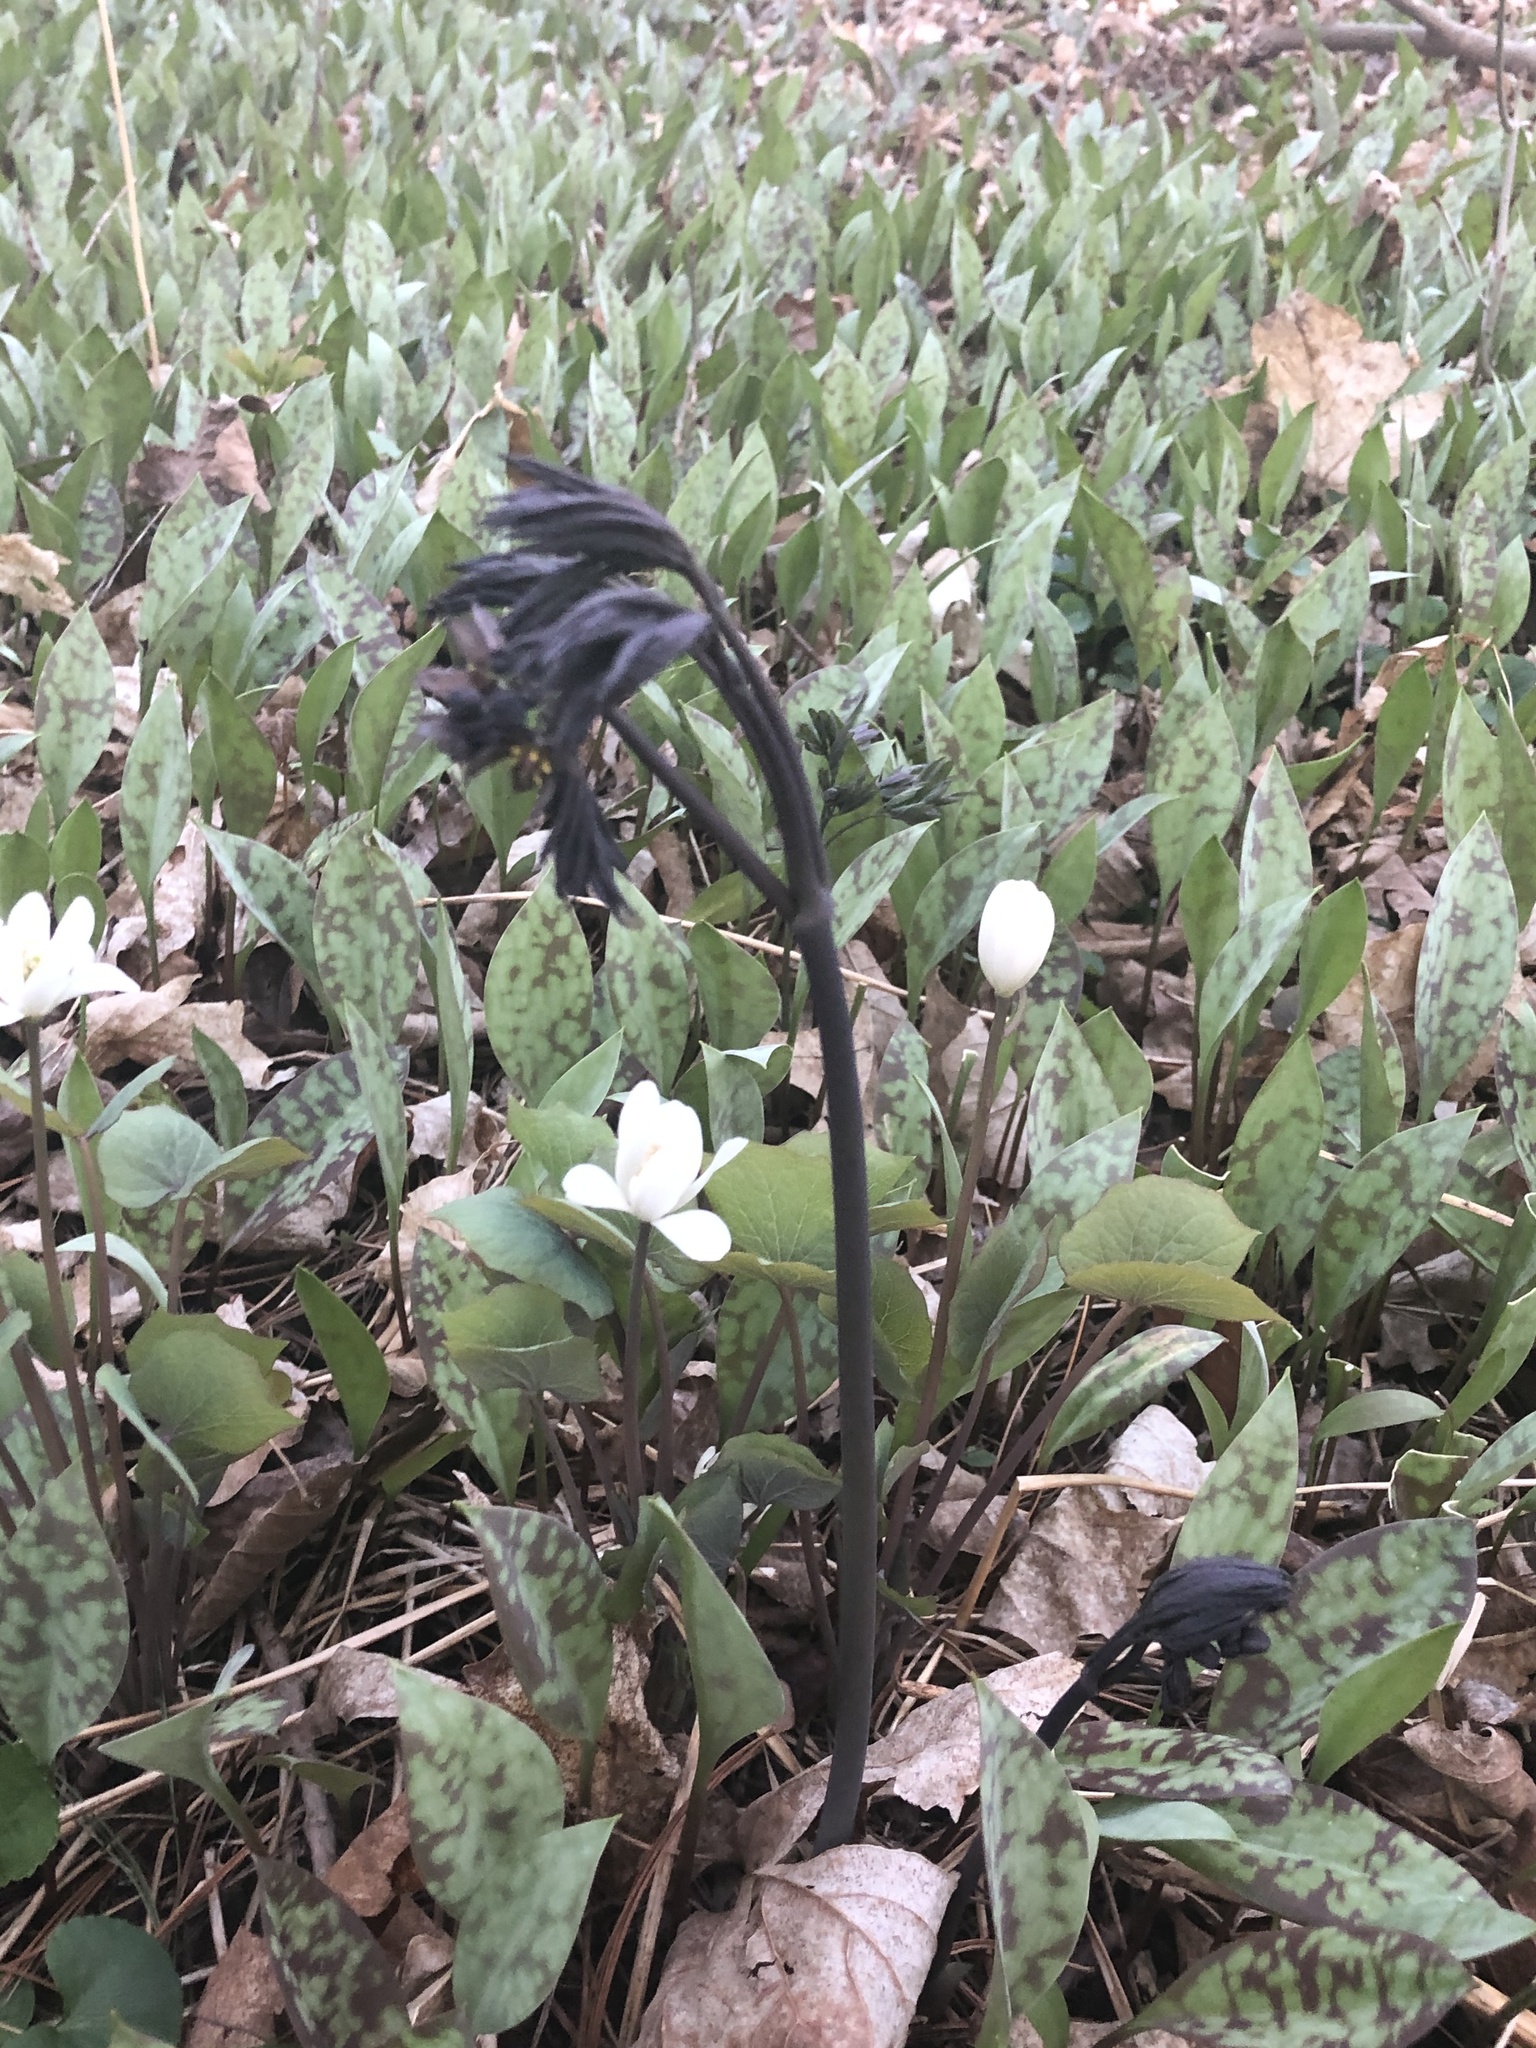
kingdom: Plantae
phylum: Tracheophyta
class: Magnoliopsida
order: Ranunculales
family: Berberidaceae
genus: Caulophyllum
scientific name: Caulophyllum giganteum
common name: Blue cohosh
